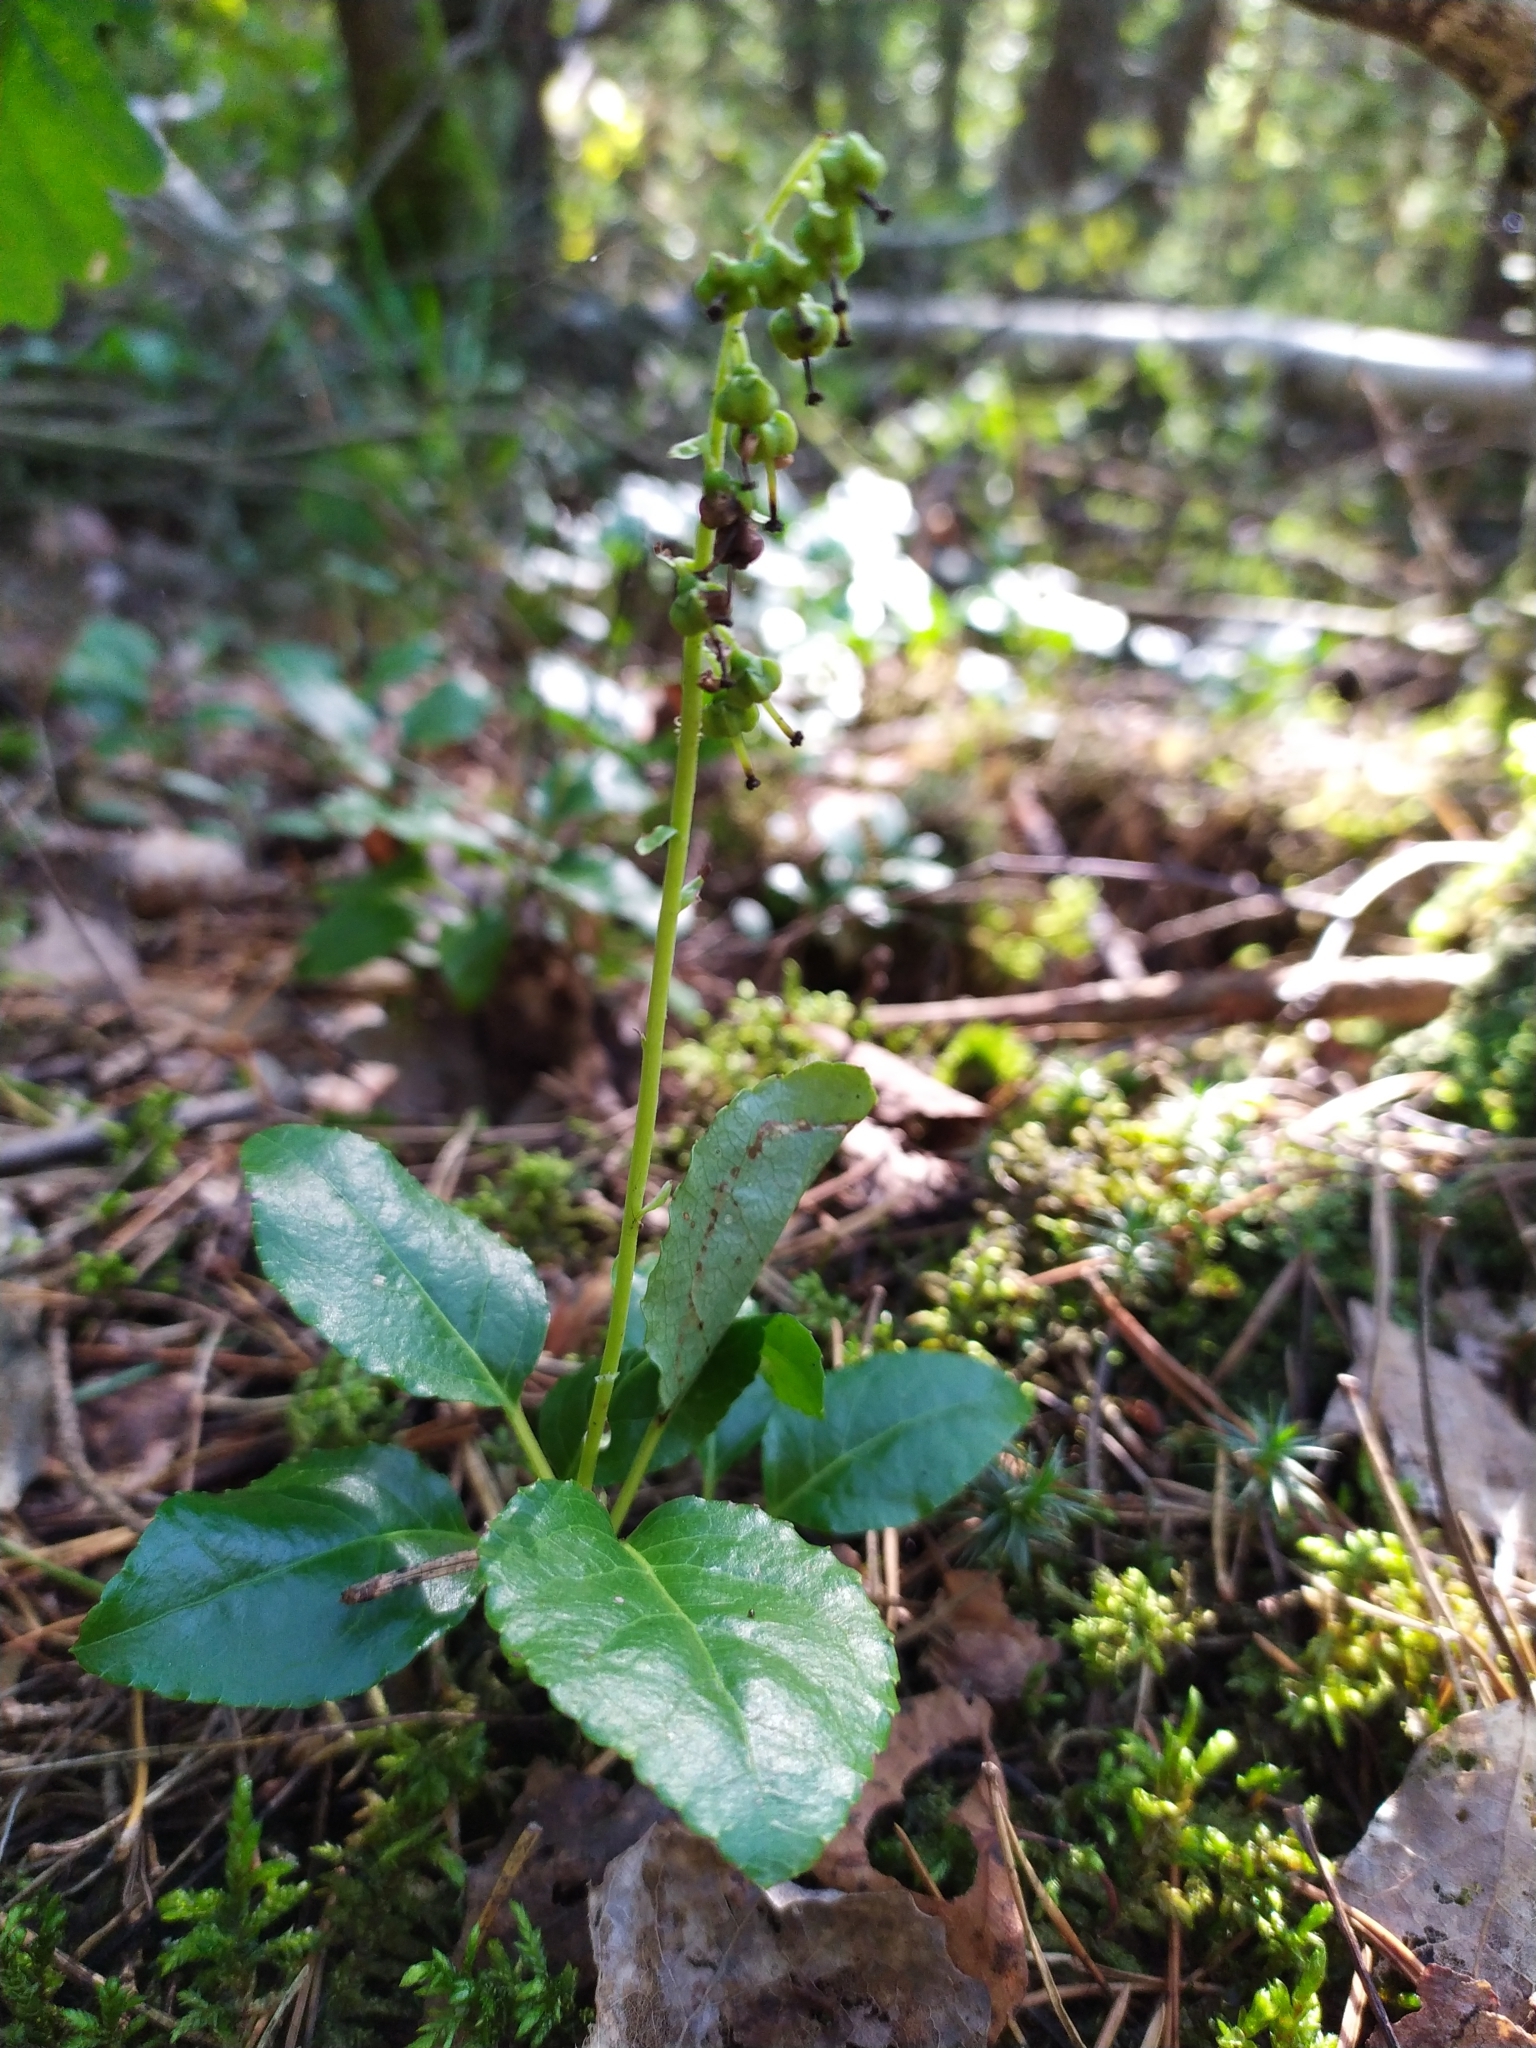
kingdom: Plantae
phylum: Tracheophyta
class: Magnoliopsida
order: Ericales
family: Ericaceae
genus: Orthilia
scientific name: Orthilia secunda
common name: One-sided orthilia
